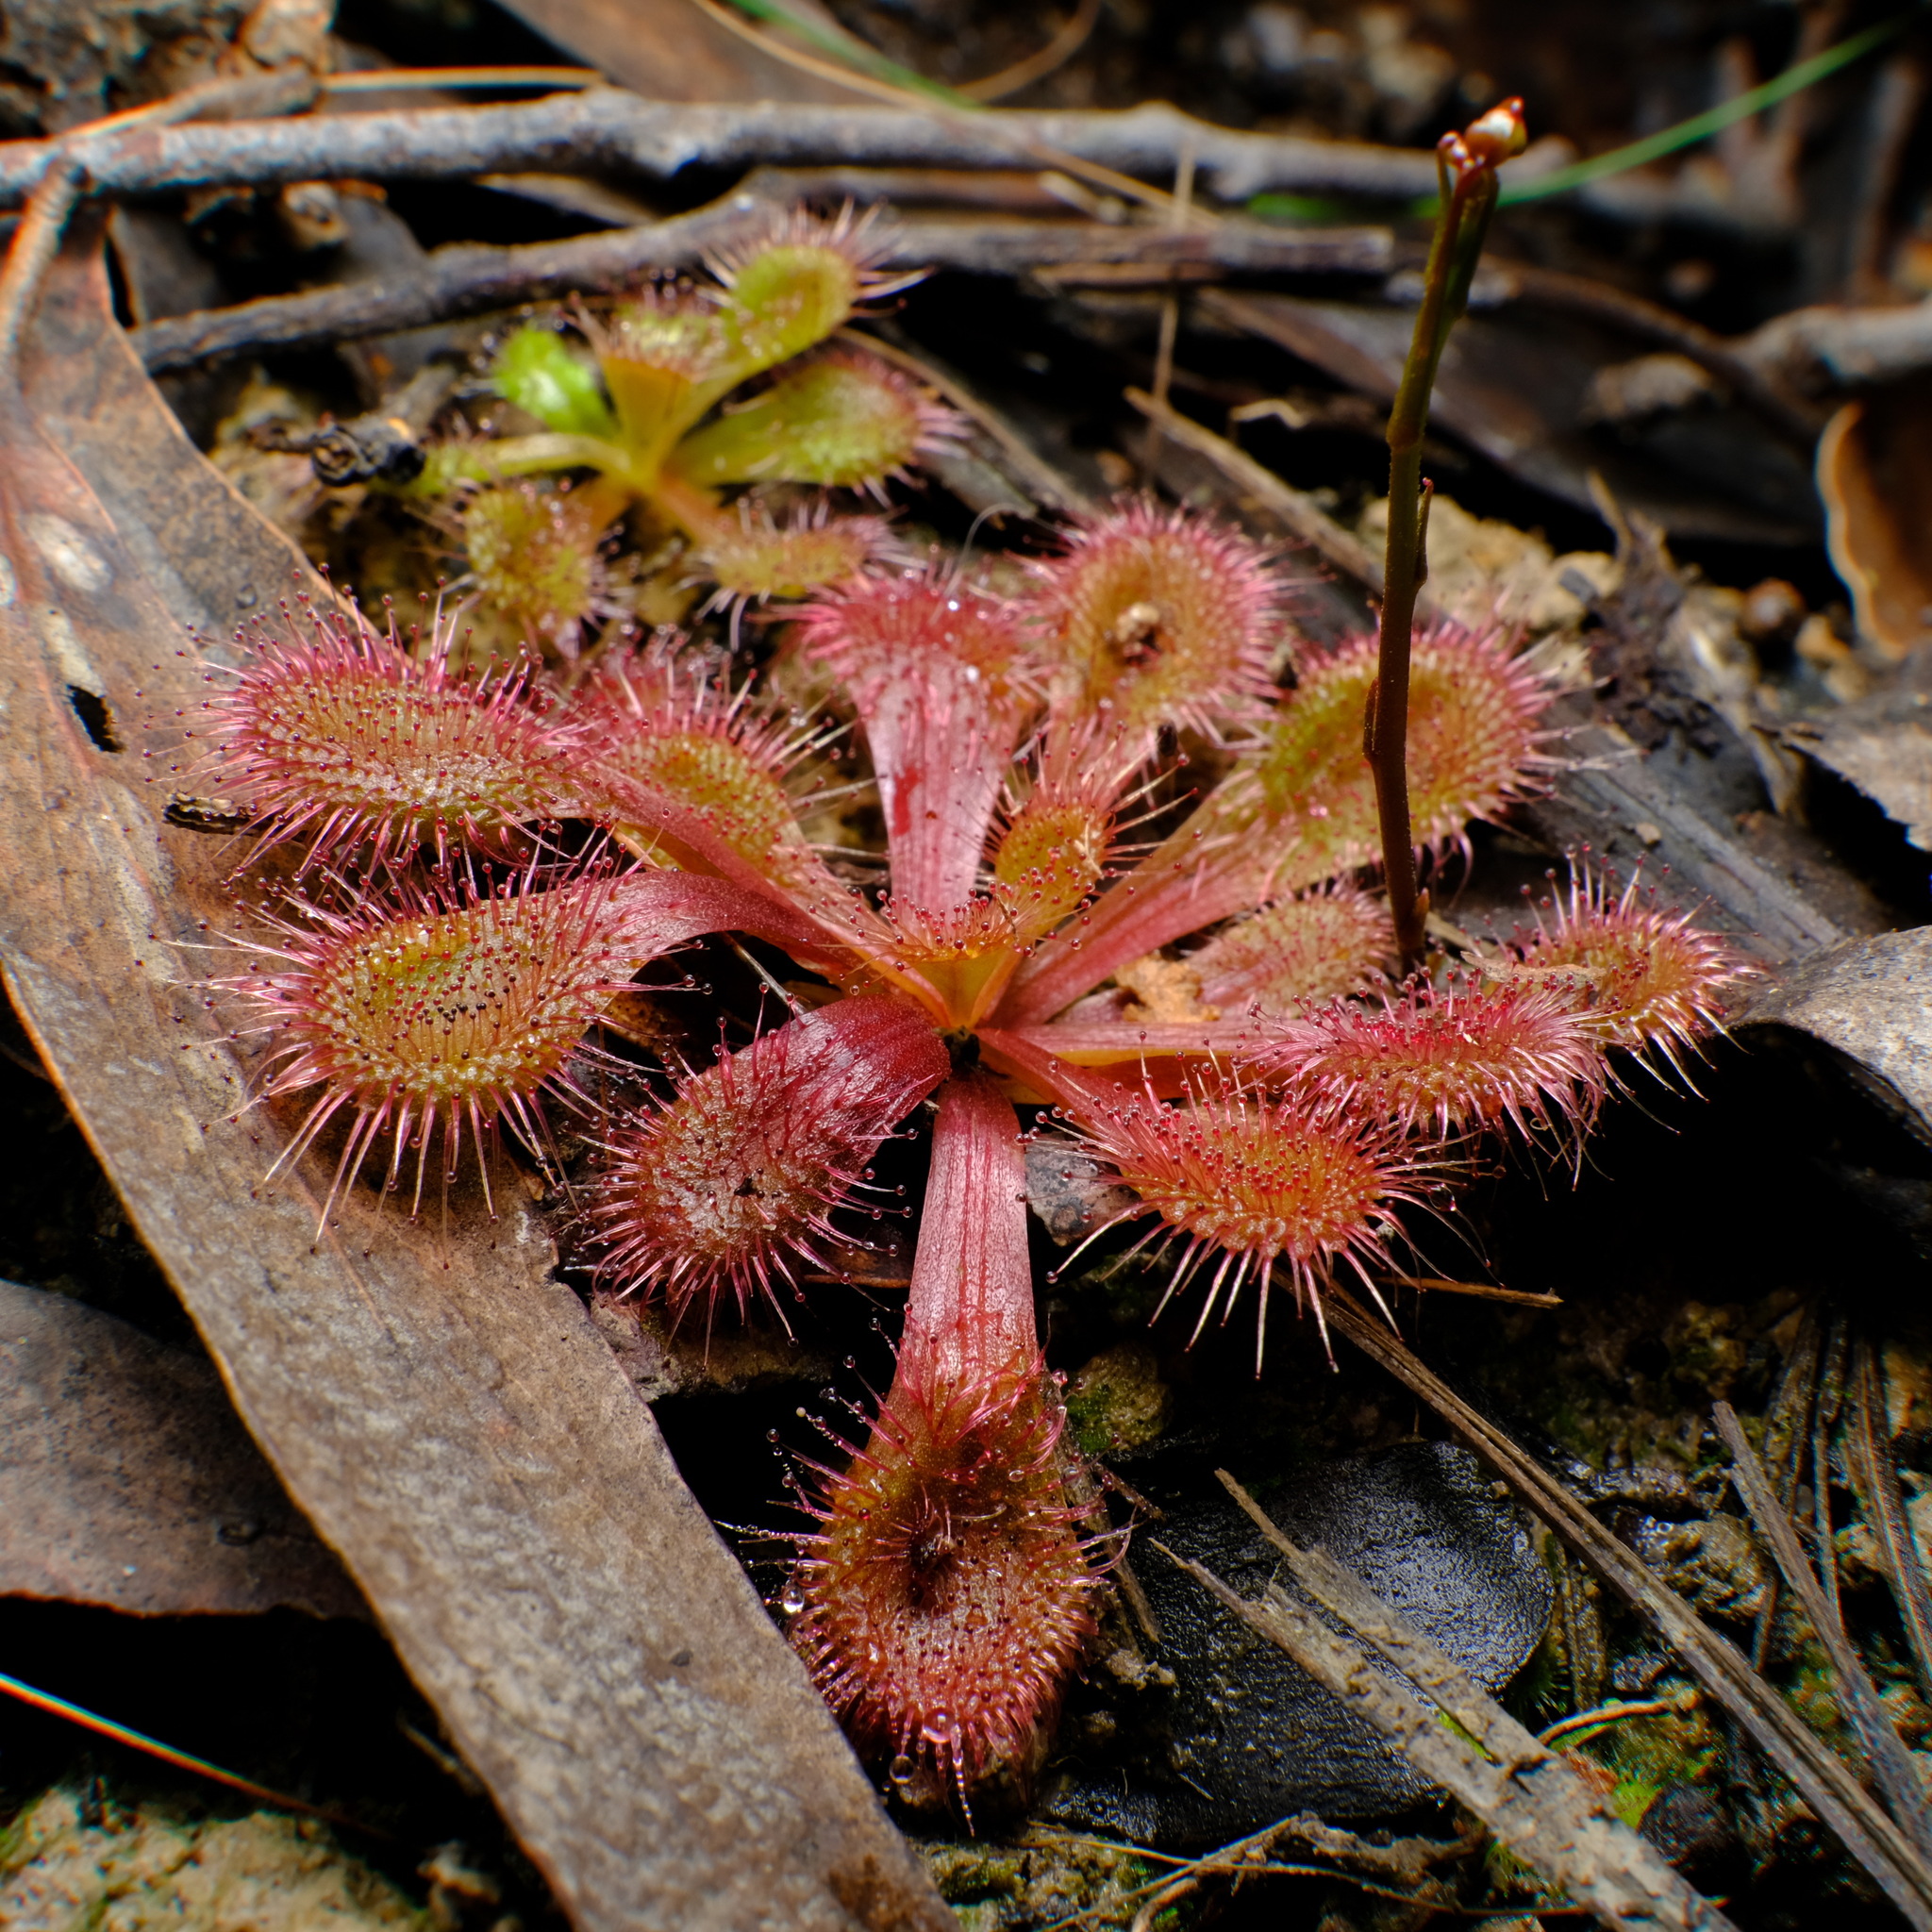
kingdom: Plantae
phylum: Tracheophyta
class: Magnoliopsida
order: Caryophyllales
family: Droseraceae
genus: Drosera
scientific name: Drosera aberrans
